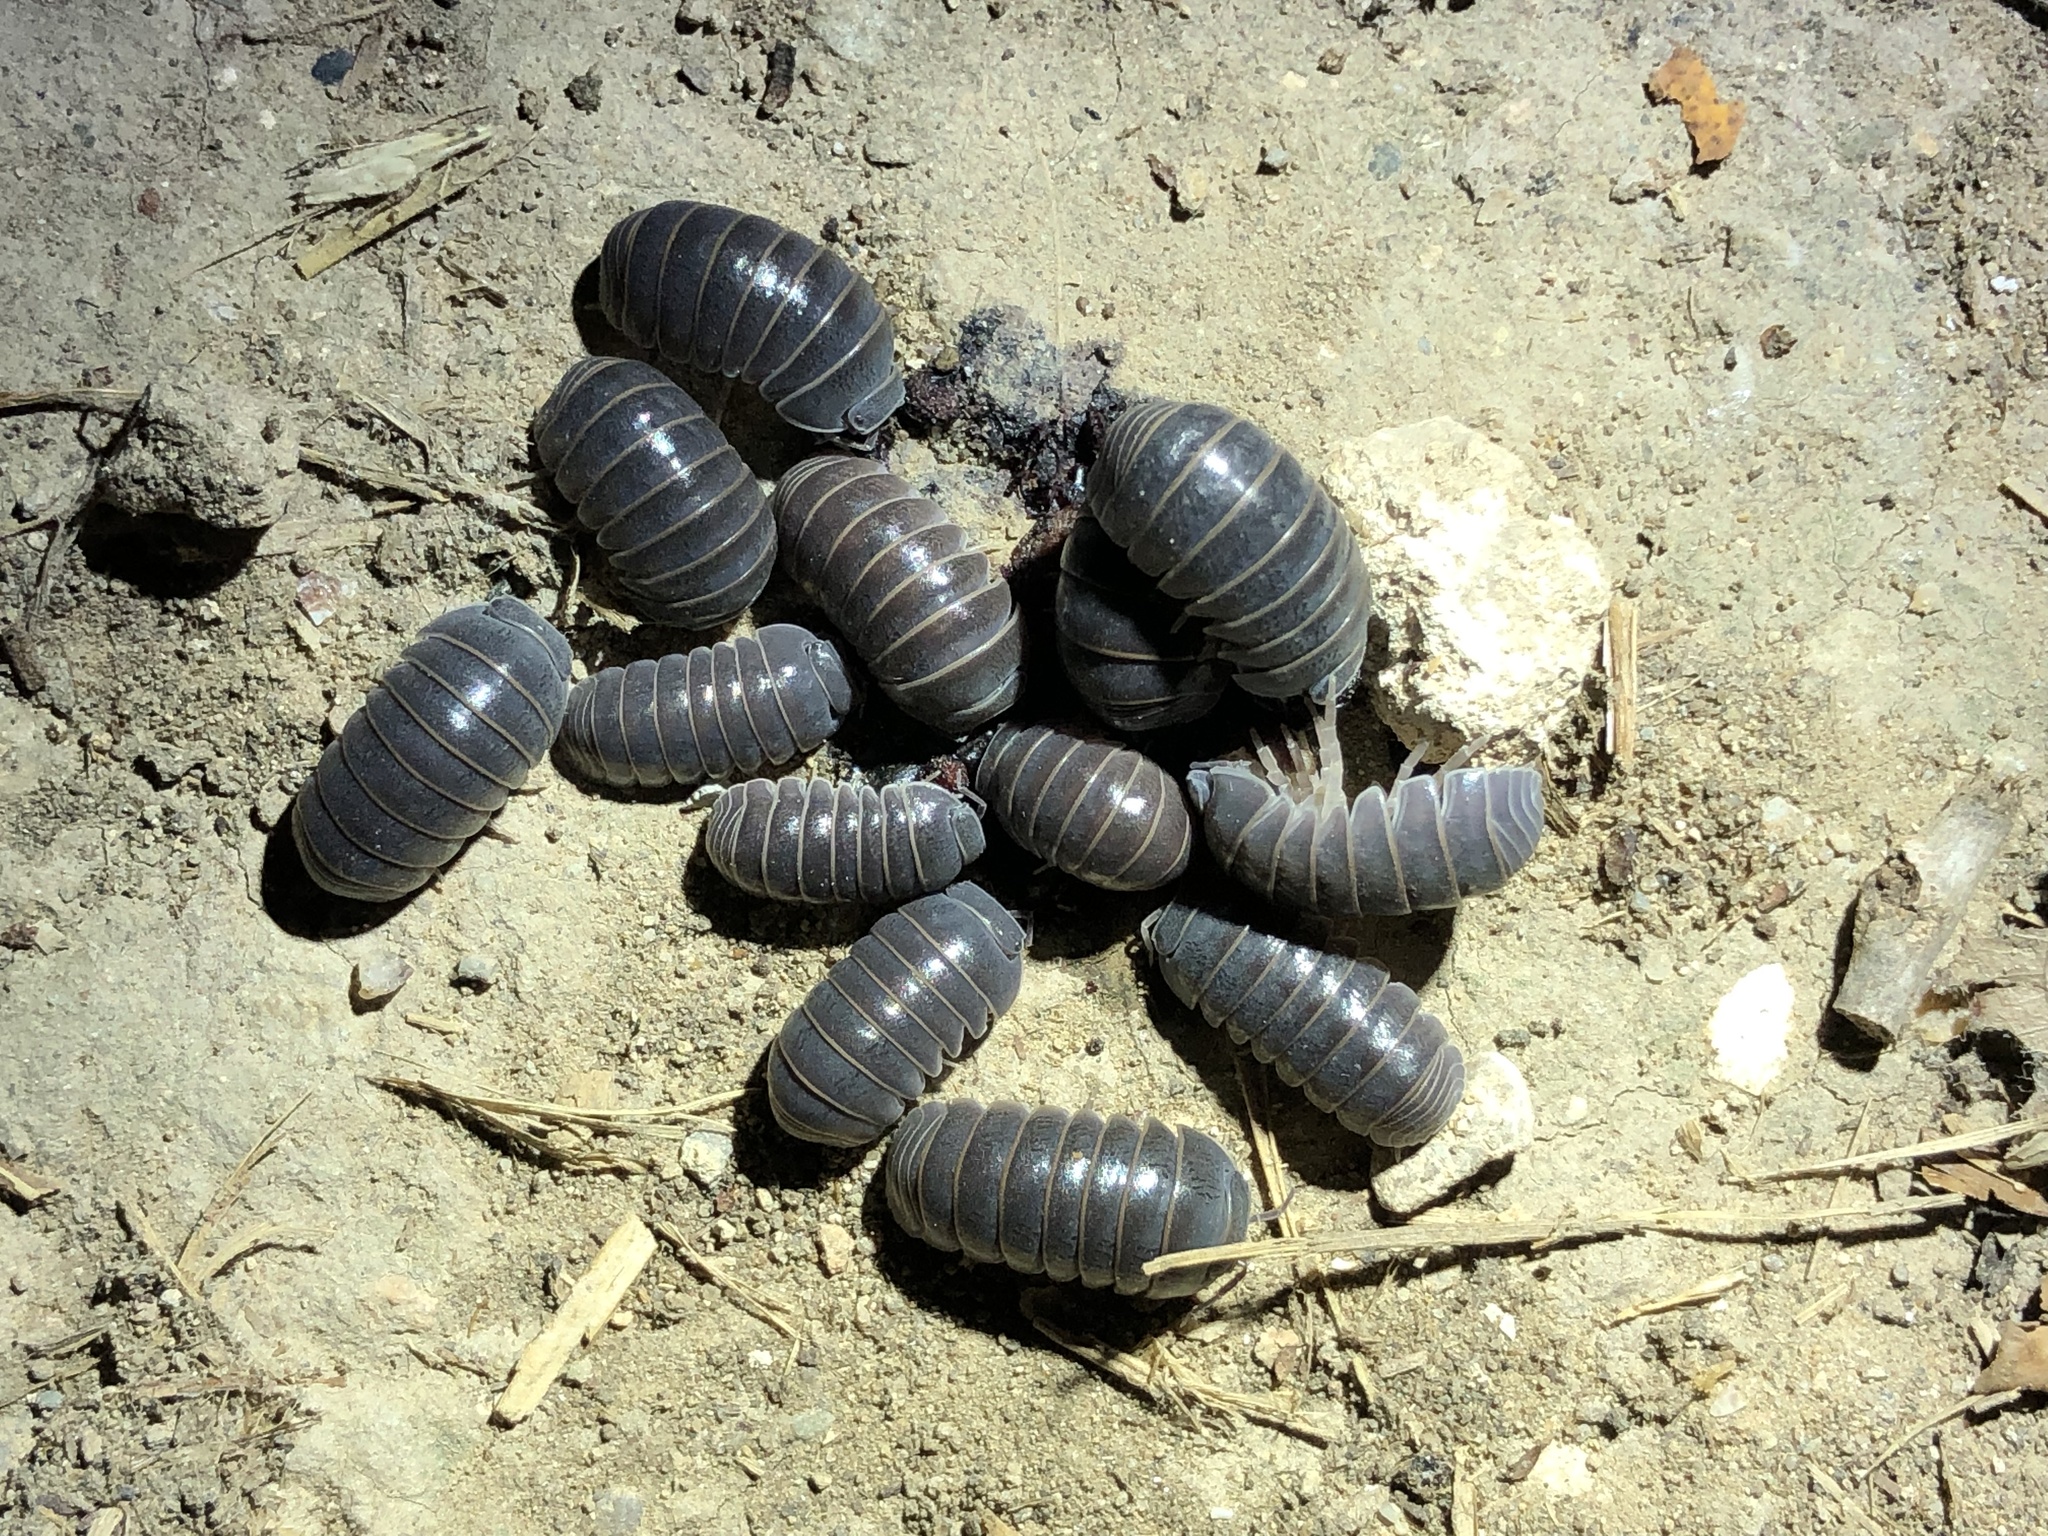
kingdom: Animalia
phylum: Arthropoda
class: Malacostraca
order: Isopoda
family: Armadillidae
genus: Armadillo
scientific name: Armadillo officinalis
